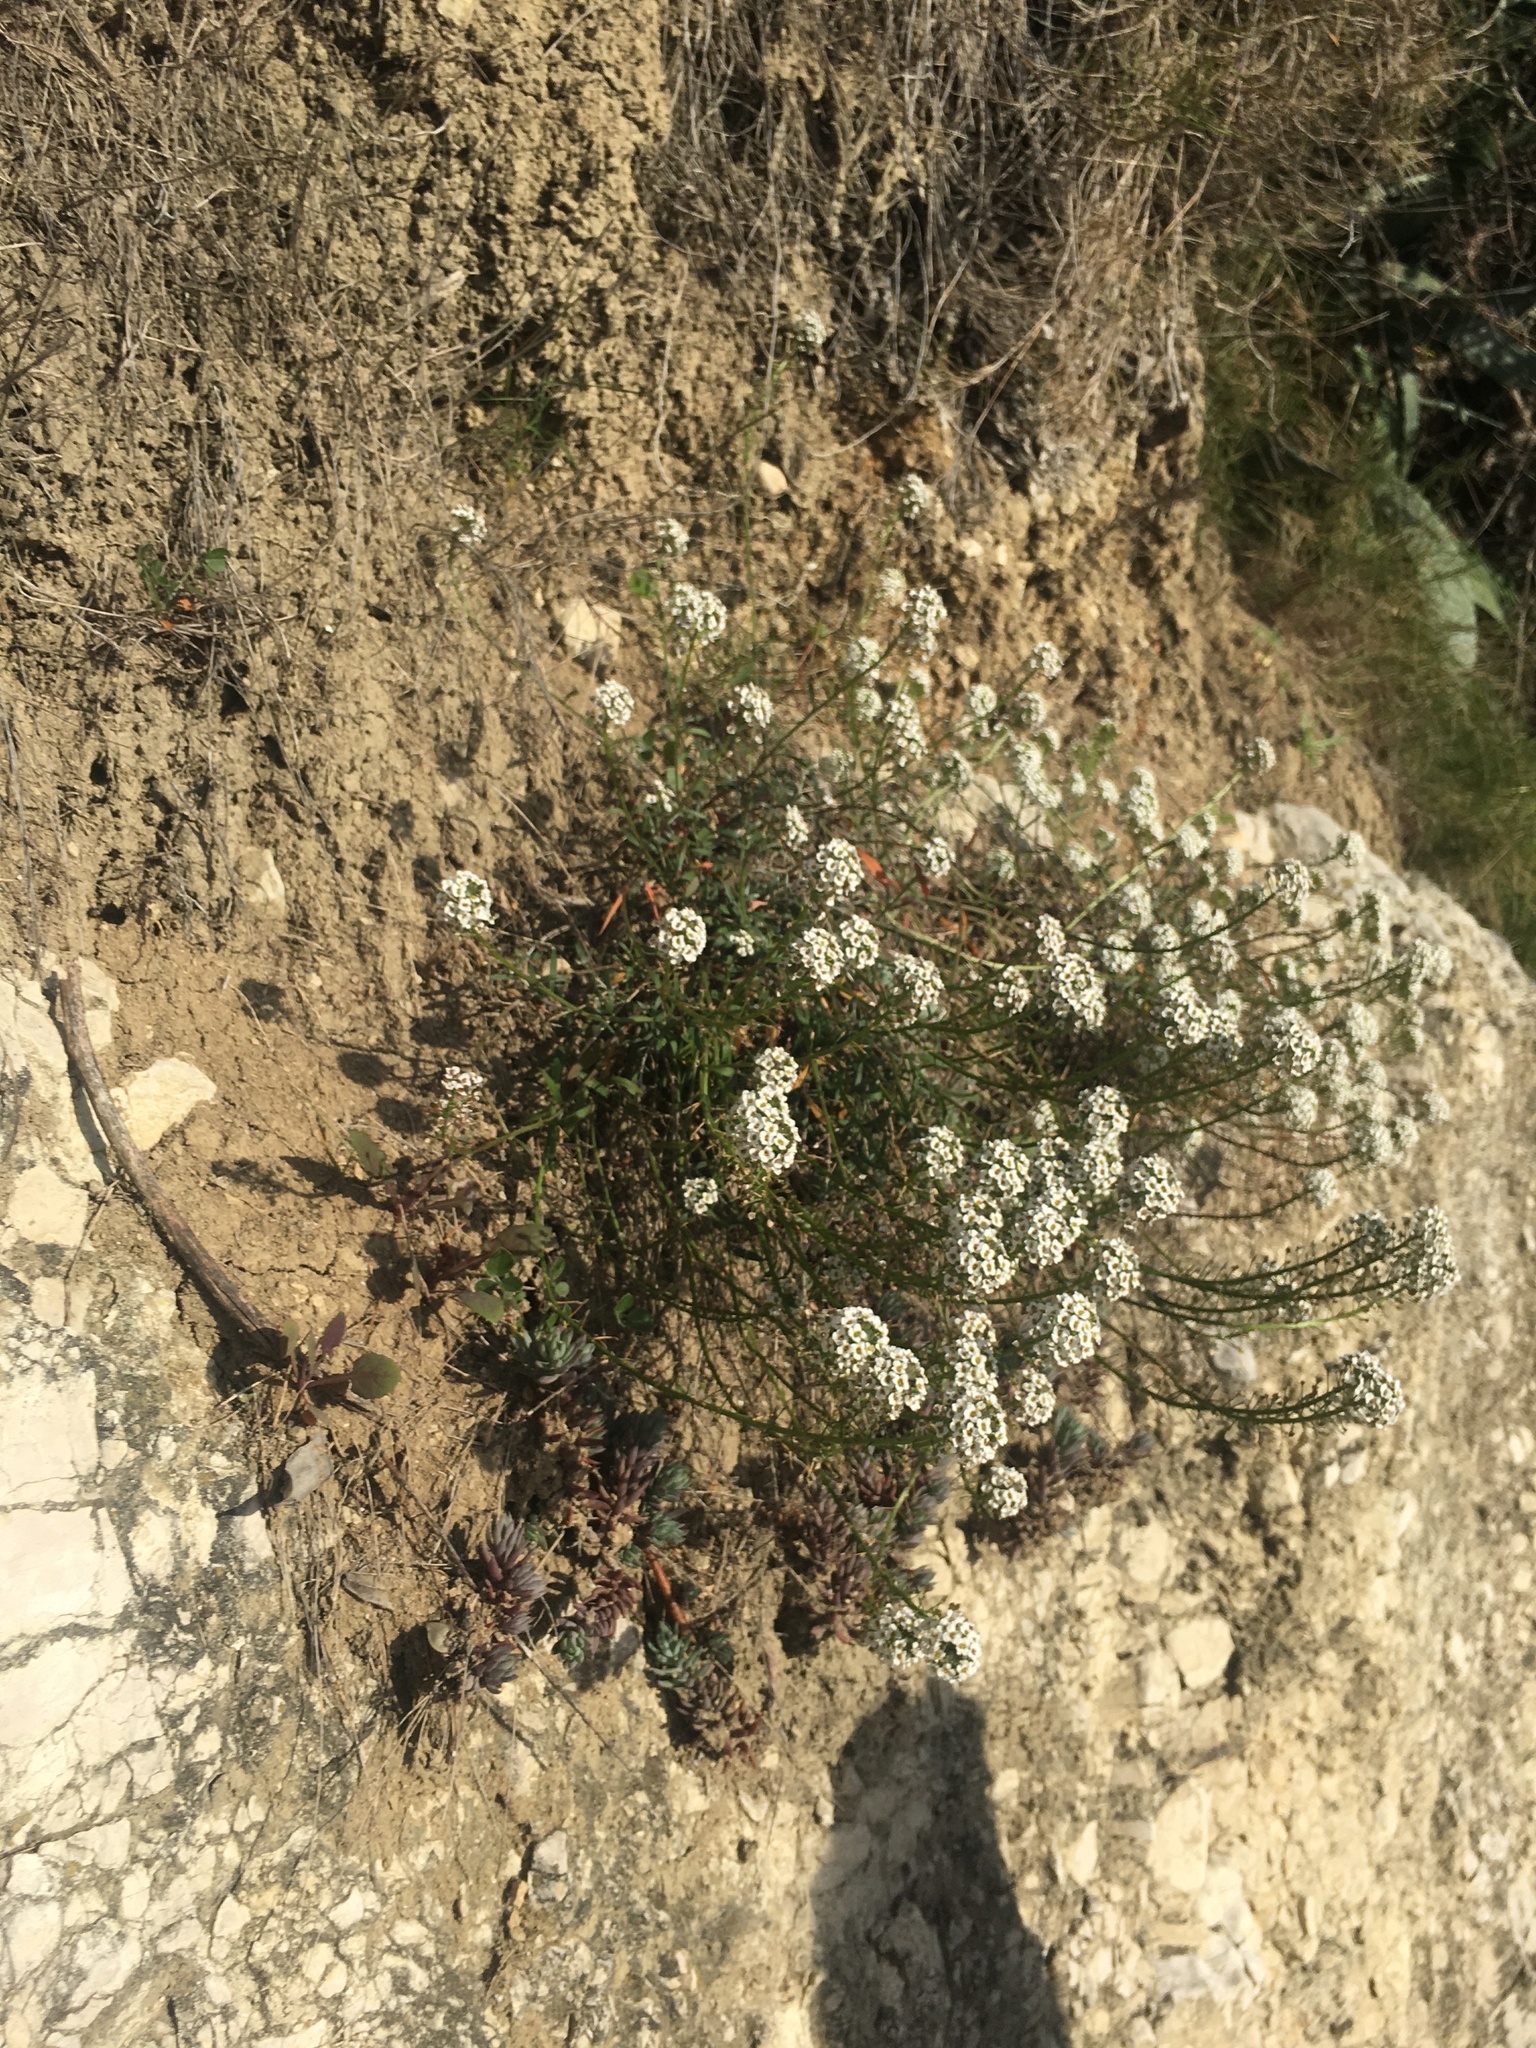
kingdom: Plantae
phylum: Tracheophyta
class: Magnoliopsida
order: Brassicales
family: Brassicaceae
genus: Lobularia
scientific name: Lobularia maritima
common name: Sweet alison
